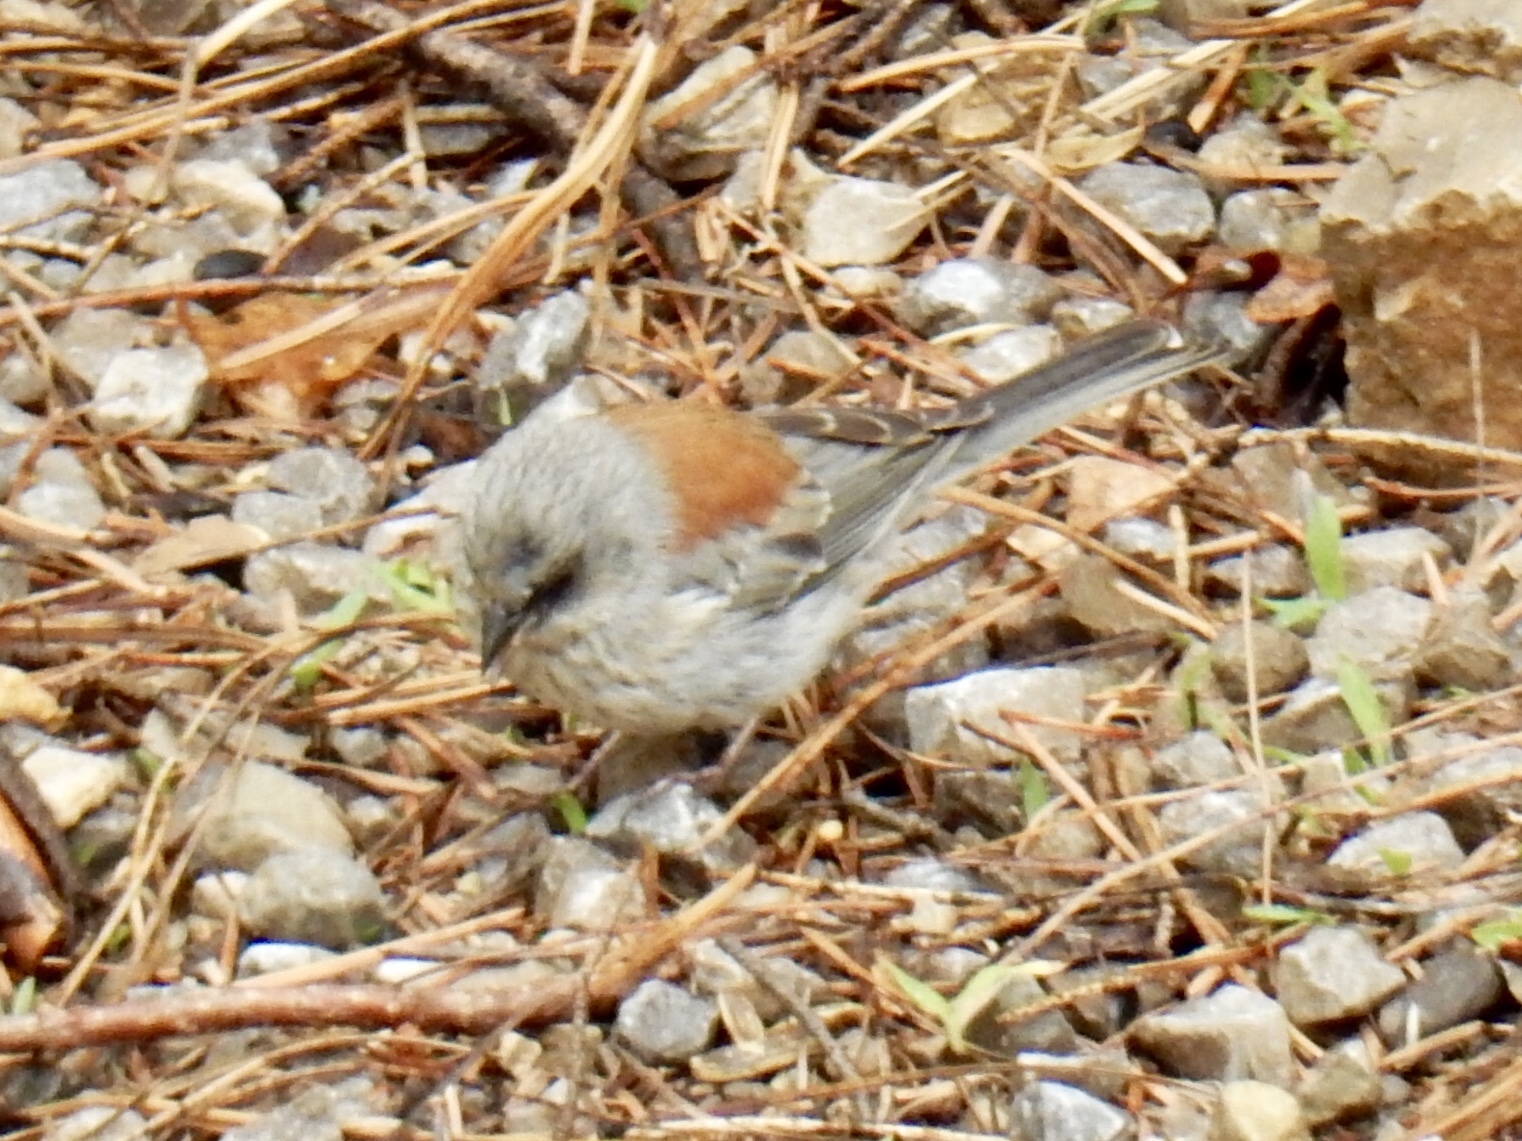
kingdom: Animalia
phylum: Chordata
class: Aves
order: Passeriformes
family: Passerellidae
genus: Junco
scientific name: Junco hyemalis
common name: Dark-eyed junco
